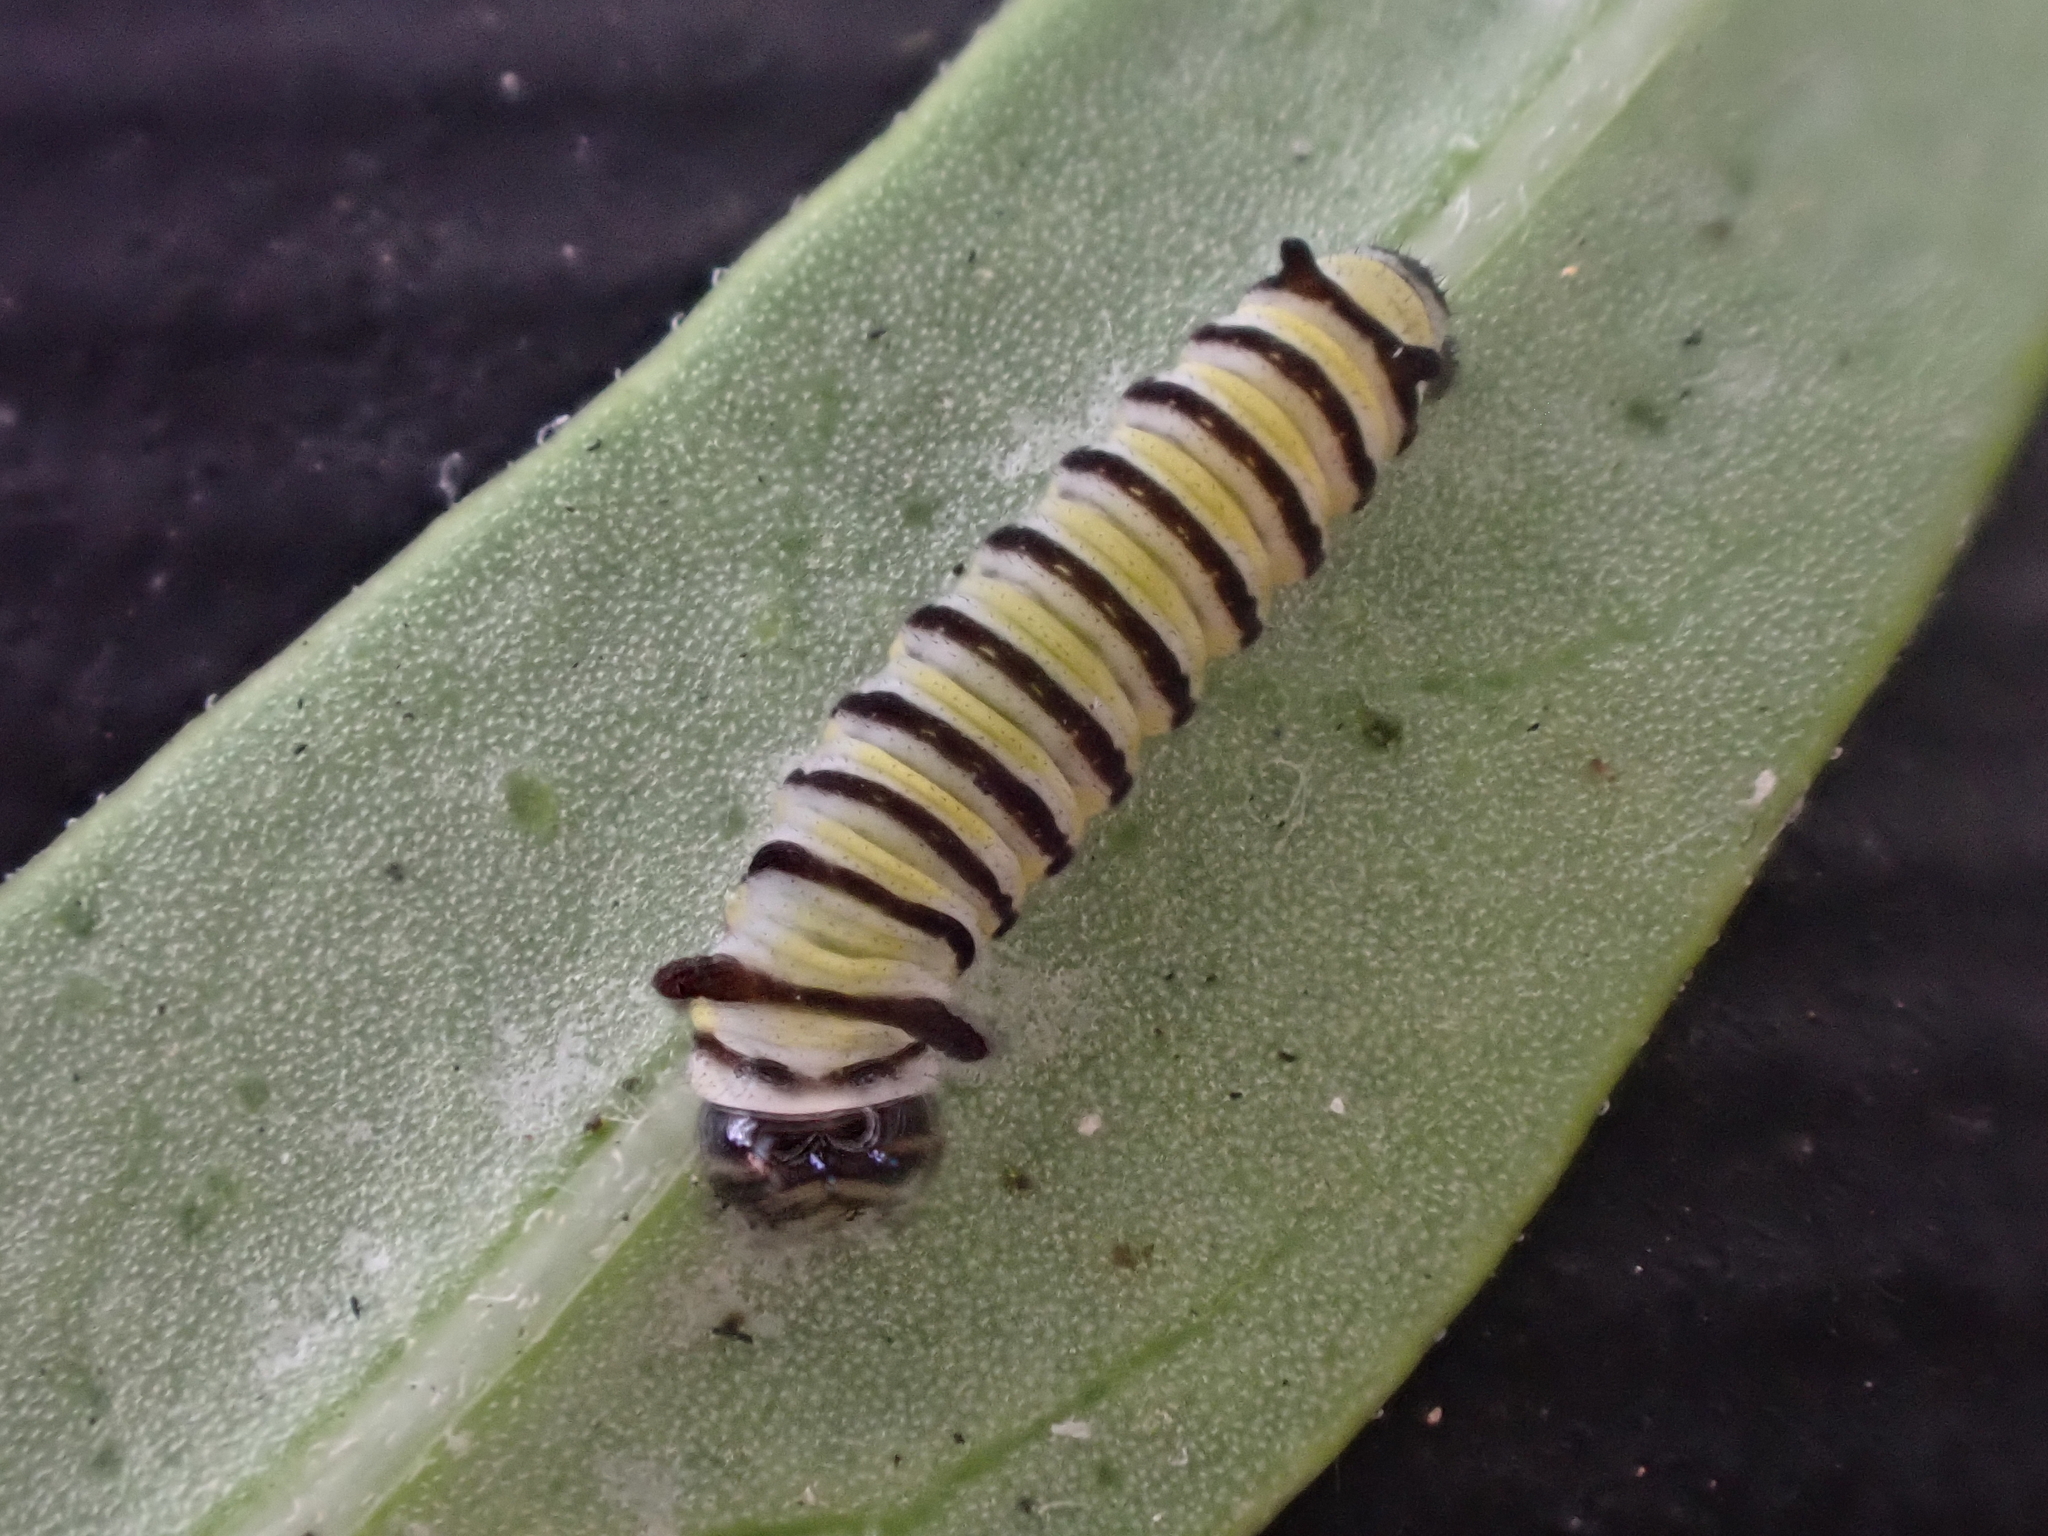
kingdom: Animalia
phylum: Arthropoda
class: Insecta
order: Lepidoptera
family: Nymphalidae
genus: Danaus
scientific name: Danaus plexippus
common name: Monarch
